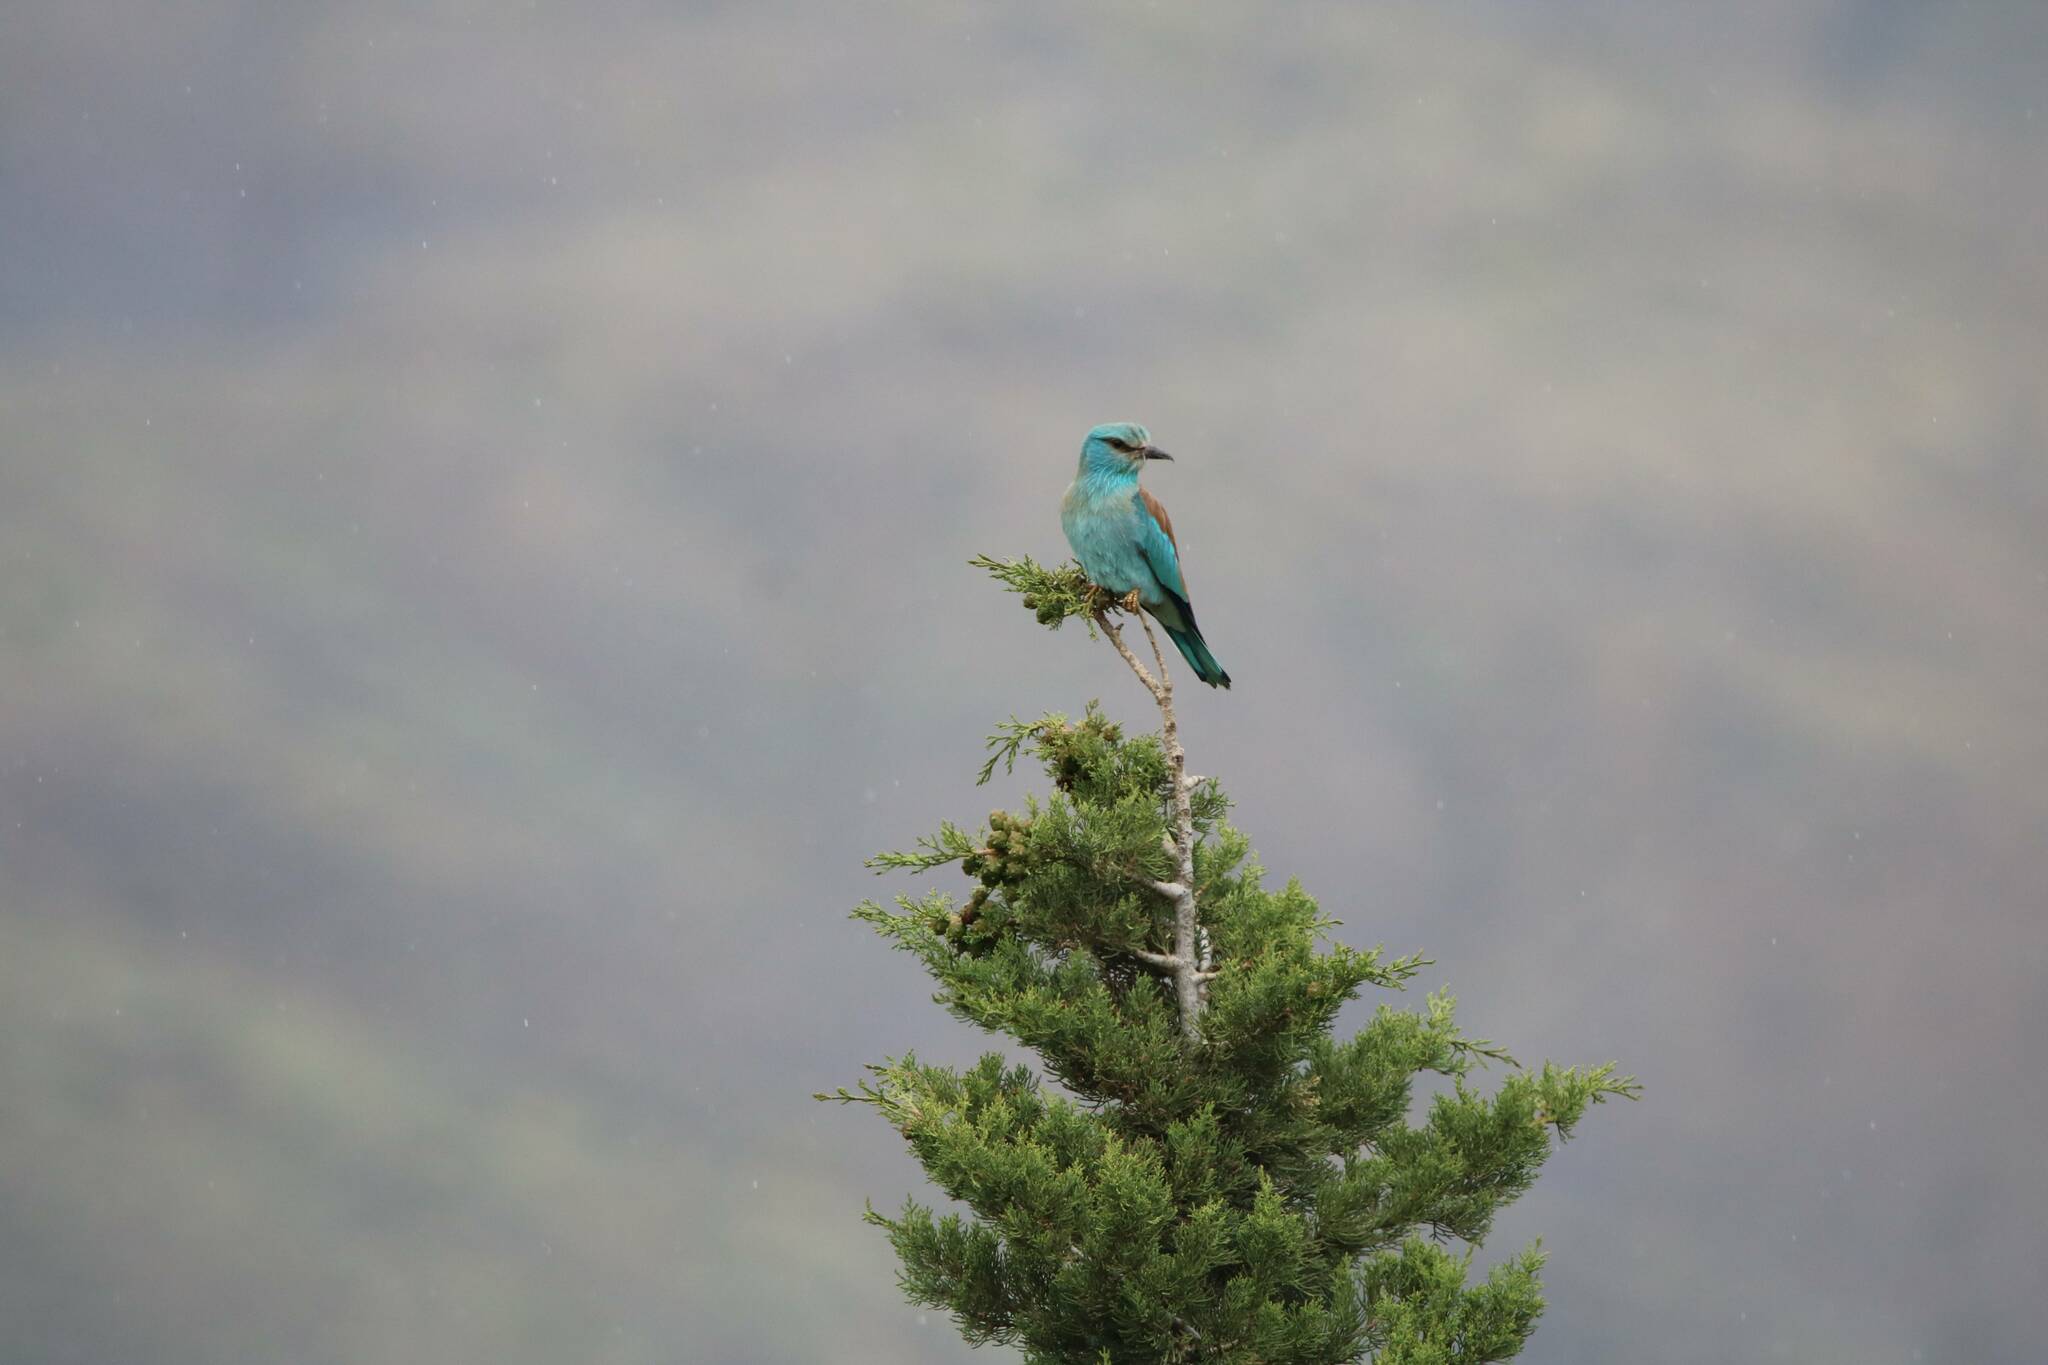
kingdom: Animalia
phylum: Chordata
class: Aves
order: Coraciiformes
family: Coraciidae
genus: Coracias
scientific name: Coracias garrulus
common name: European roller
